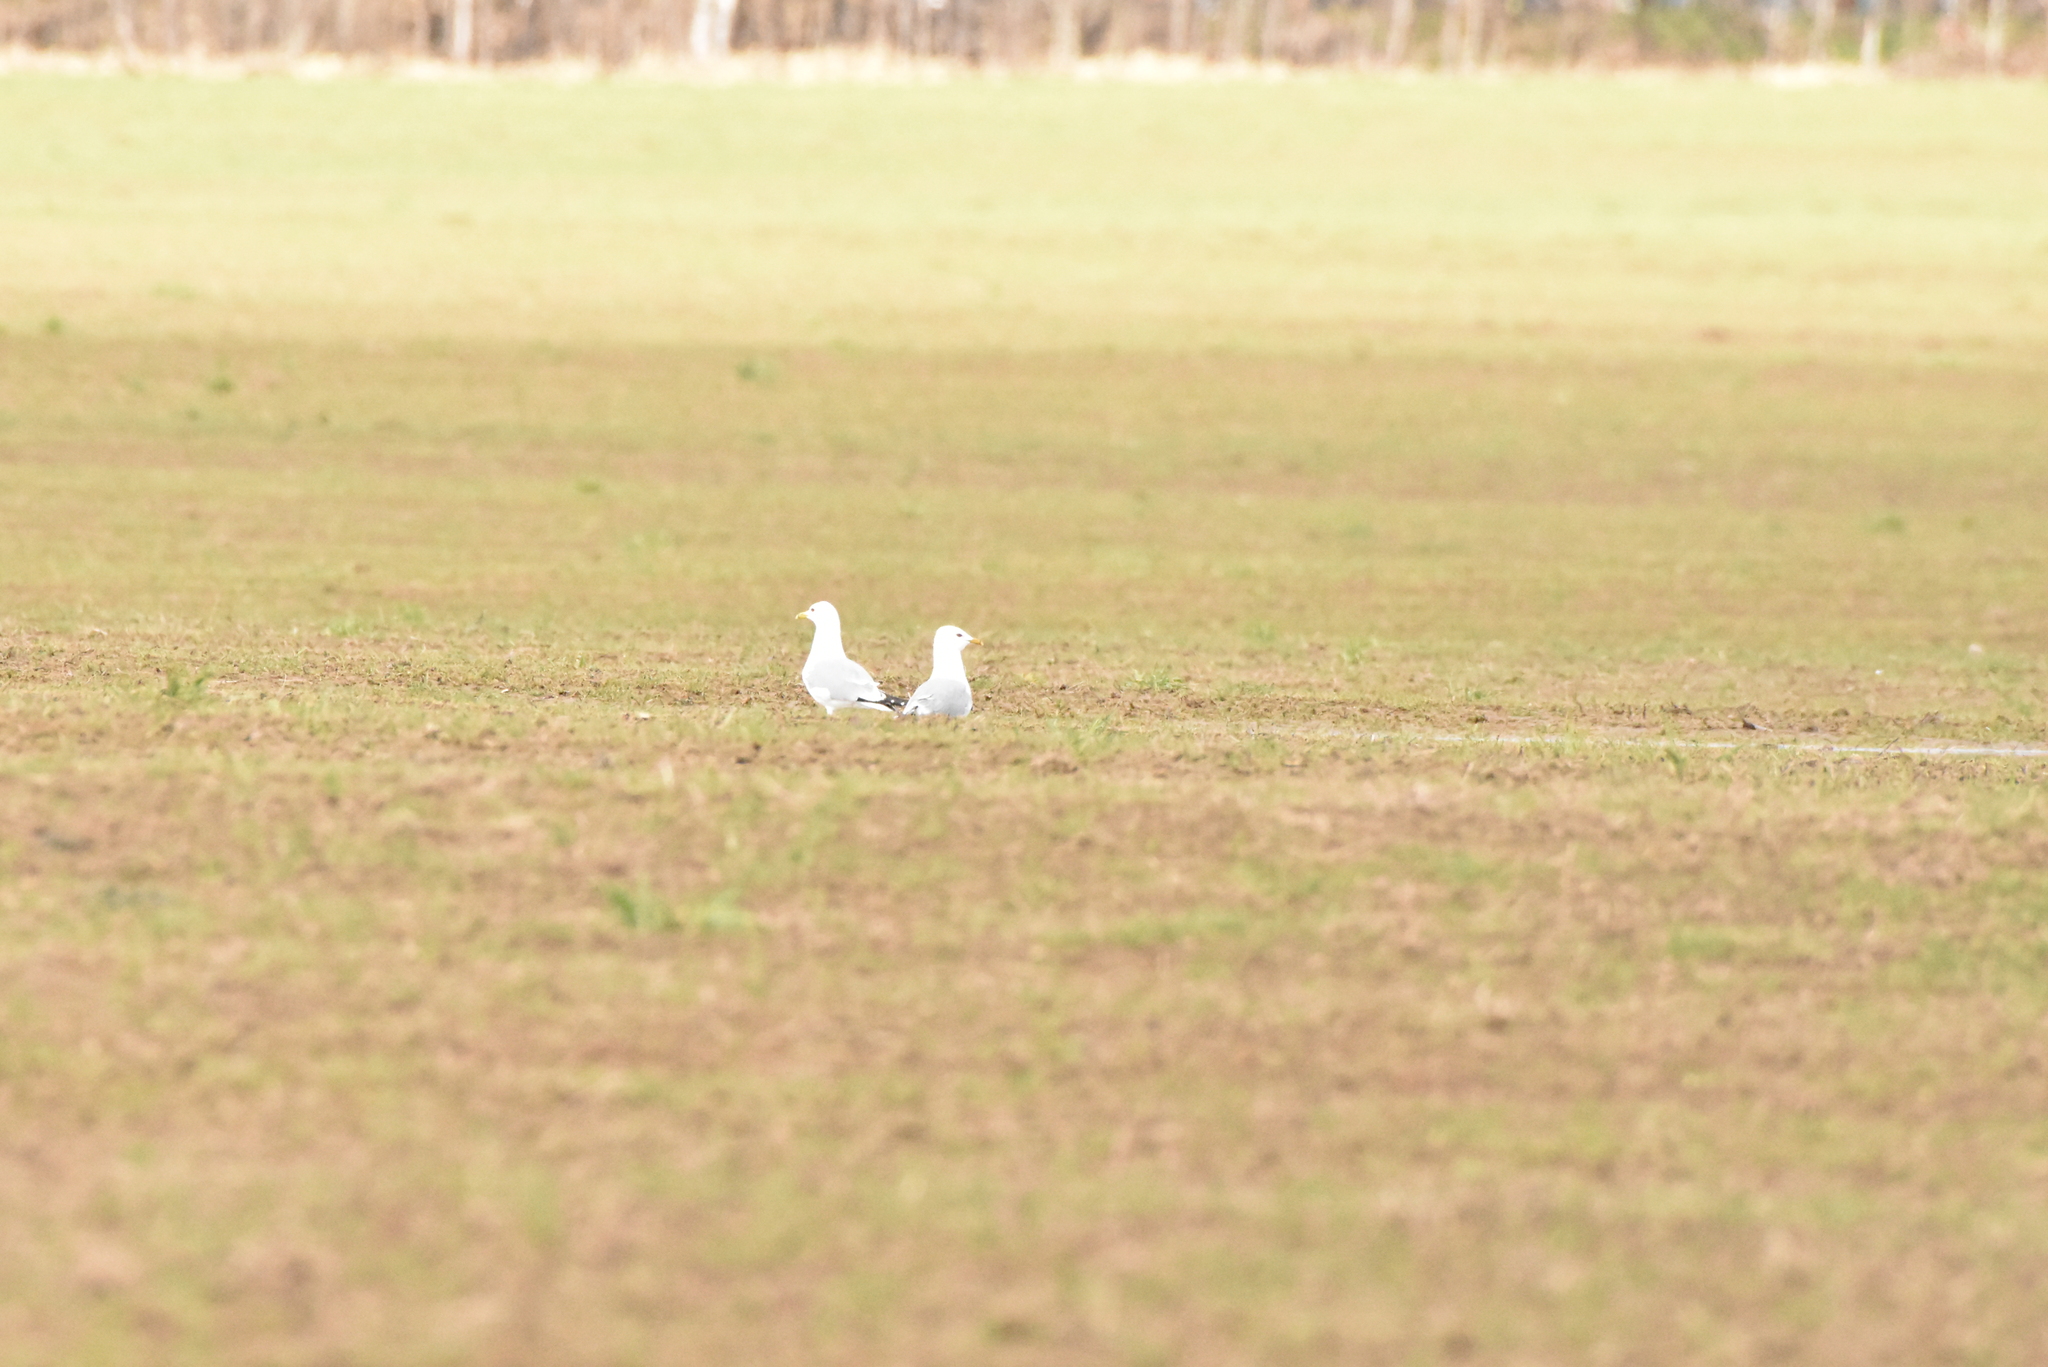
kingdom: Animalia
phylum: Chordata
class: Aves
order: Charadriiformes
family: Laridae
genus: Larus
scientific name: Larus canus
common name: Mew gull
